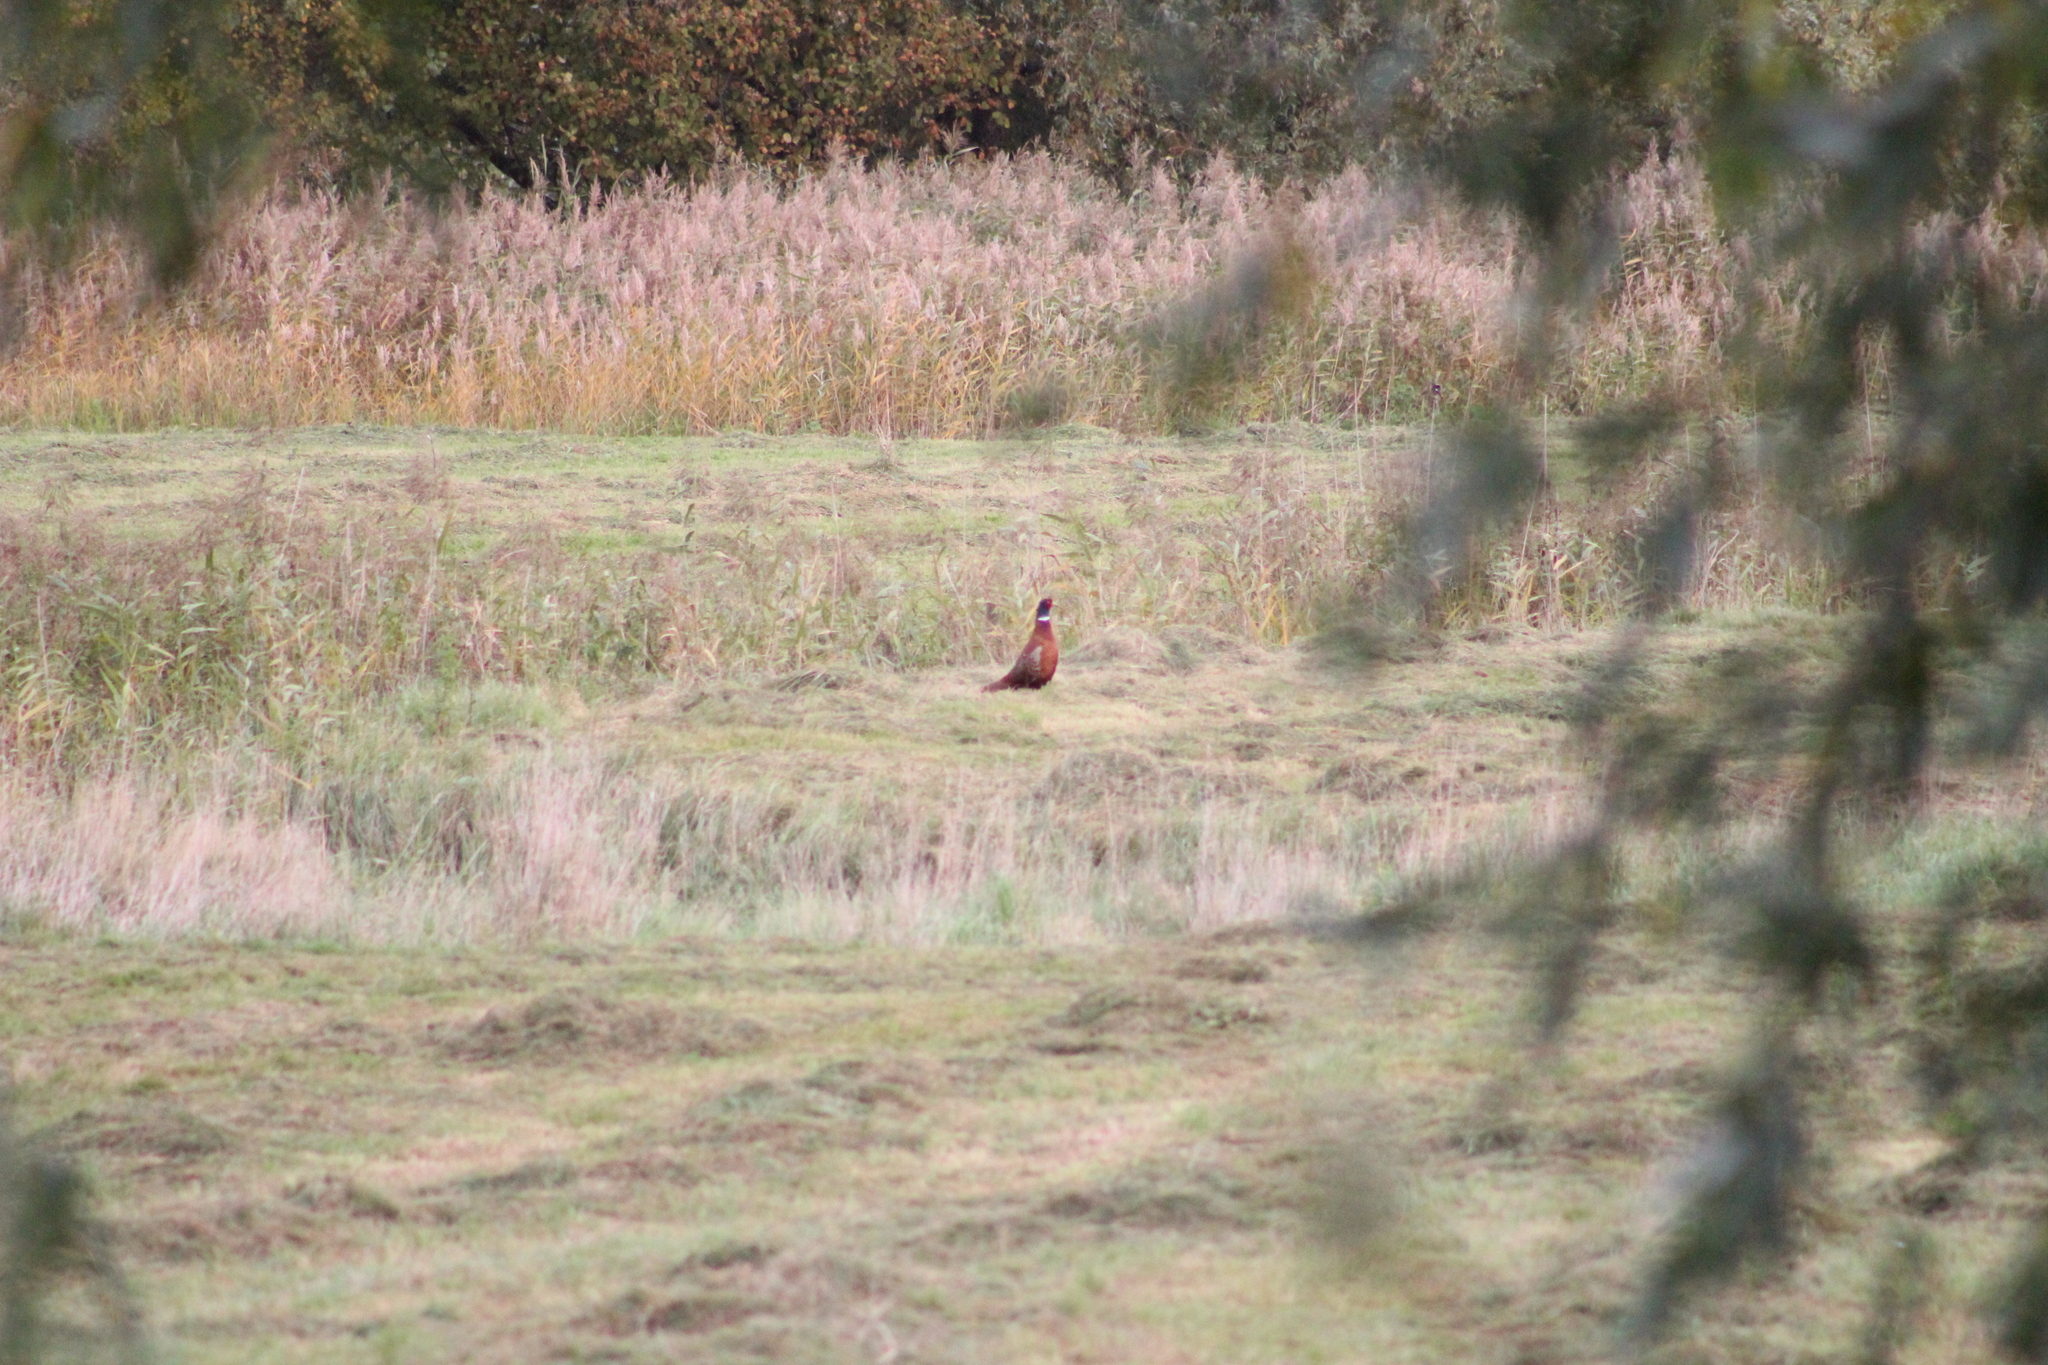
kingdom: Animalia
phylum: Chordata
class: Aves
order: Galliformes
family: Phasianidae
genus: Phasianus
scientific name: Phasianus colchicus
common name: Common pheasant
